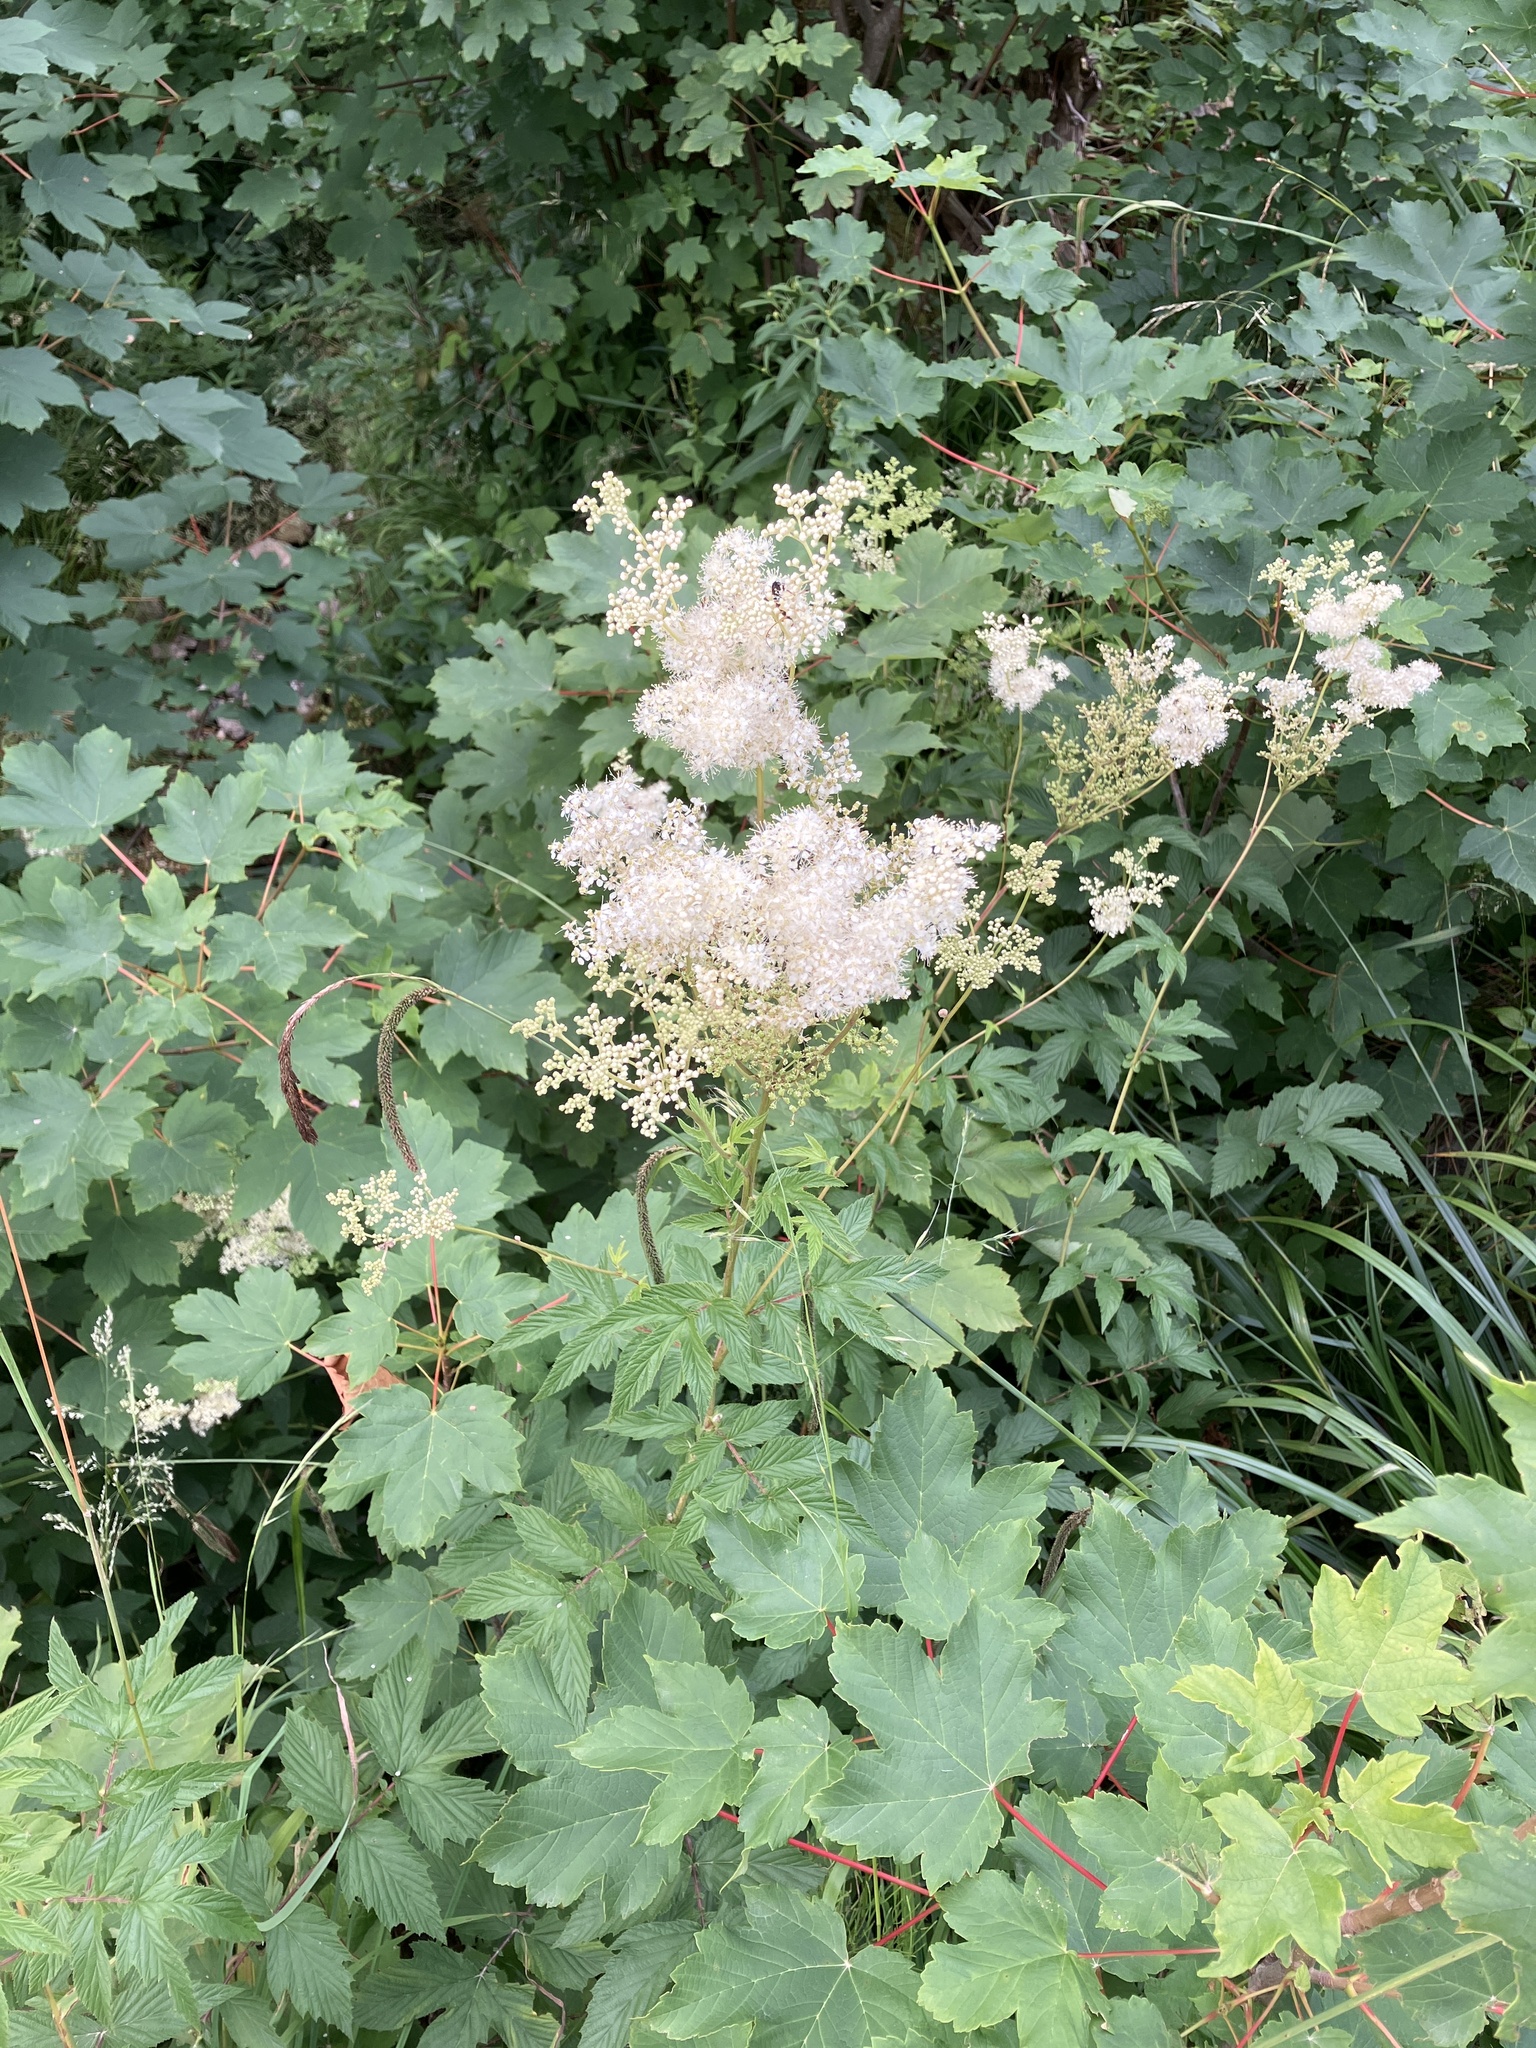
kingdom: Plantae
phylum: Tracheophyta
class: Magnoliopsida
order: Rosales
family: Rosaceae
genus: Filipendula
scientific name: Filipendula ulmaria
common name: Meadowsweet
